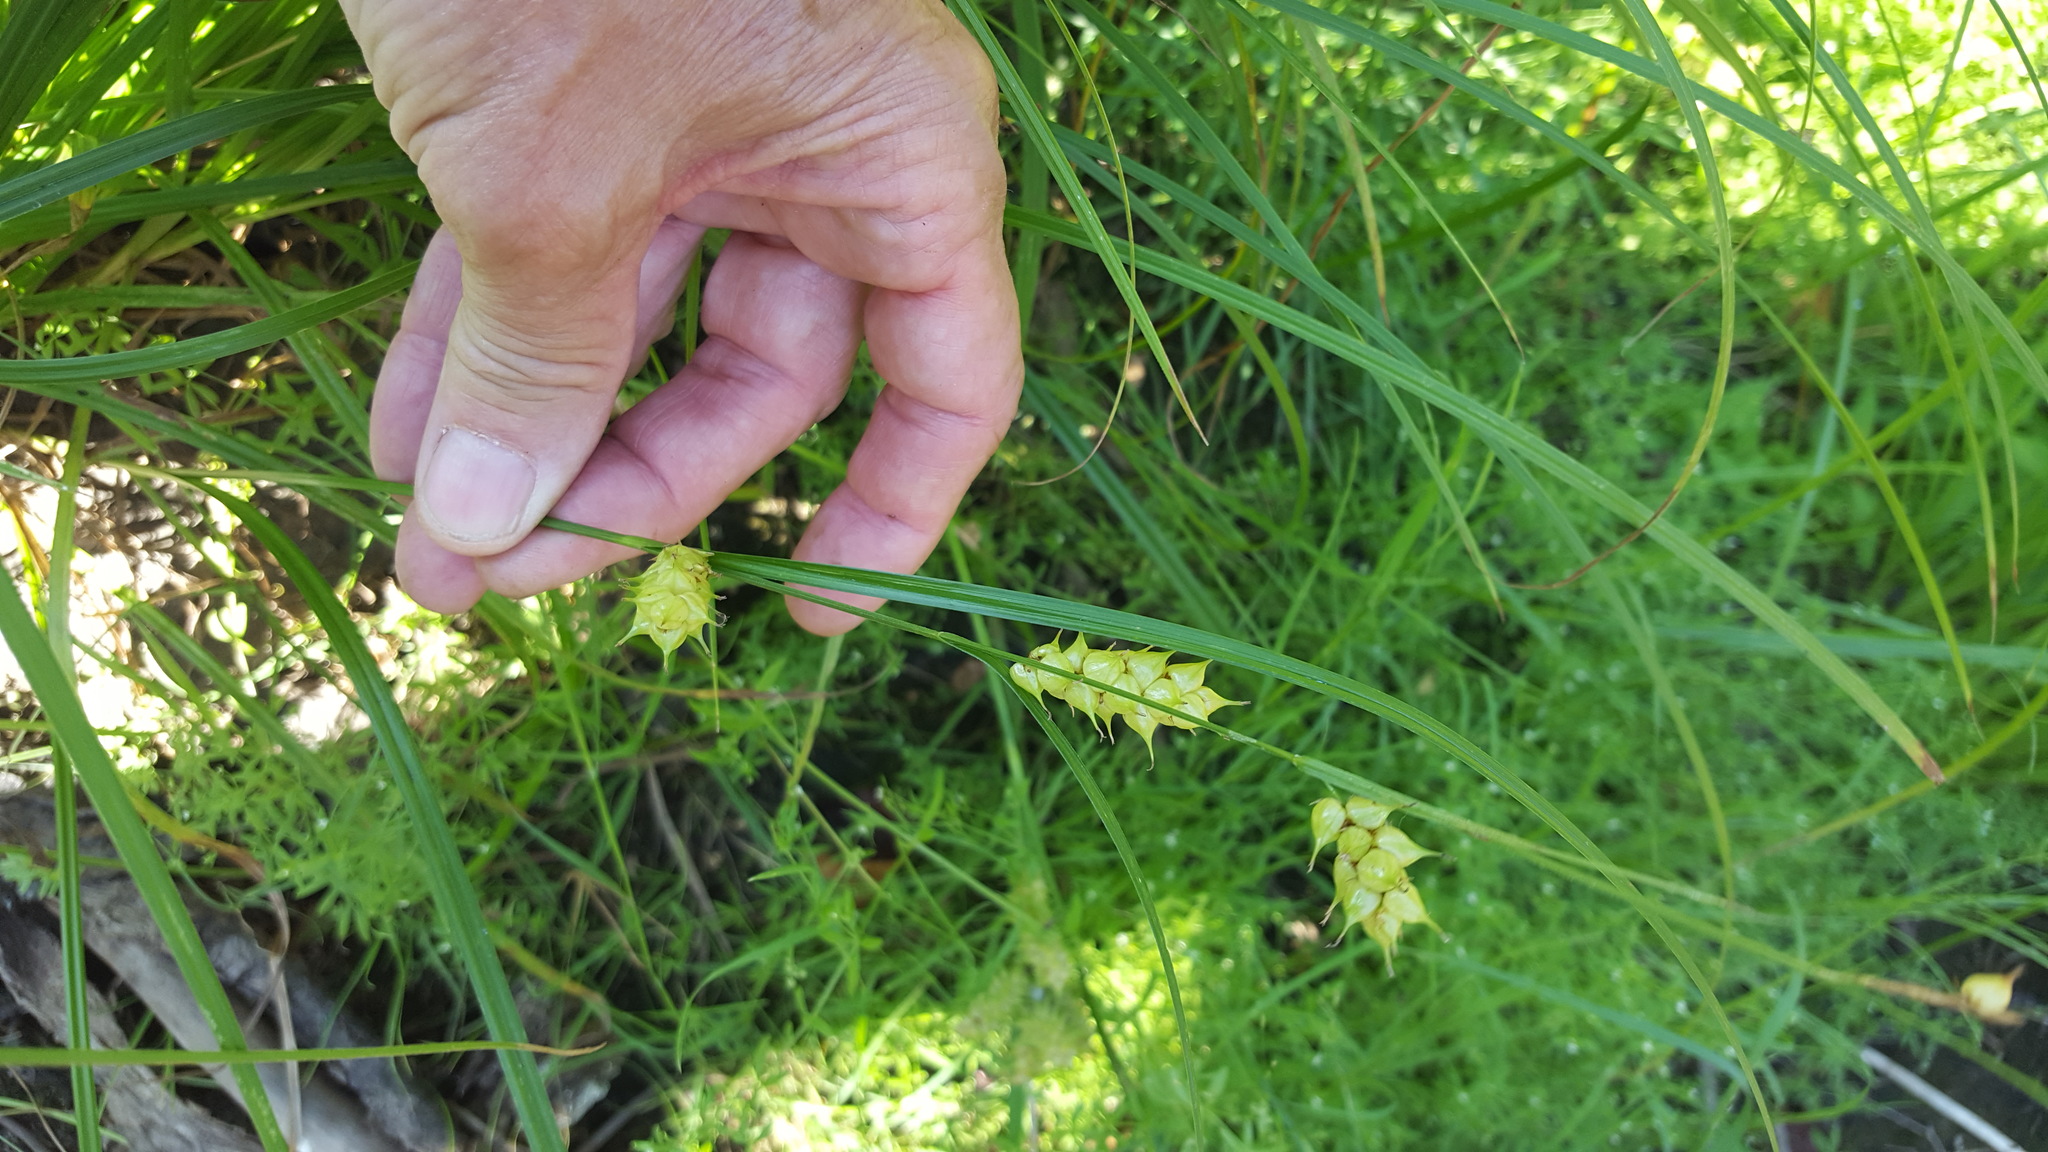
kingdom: Plantae
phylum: Tracheophyta
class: Liliopsida
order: Poales
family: Cyperaceae
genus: Carex
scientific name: Carex tuckermanii
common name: Tuckerman's sedge
